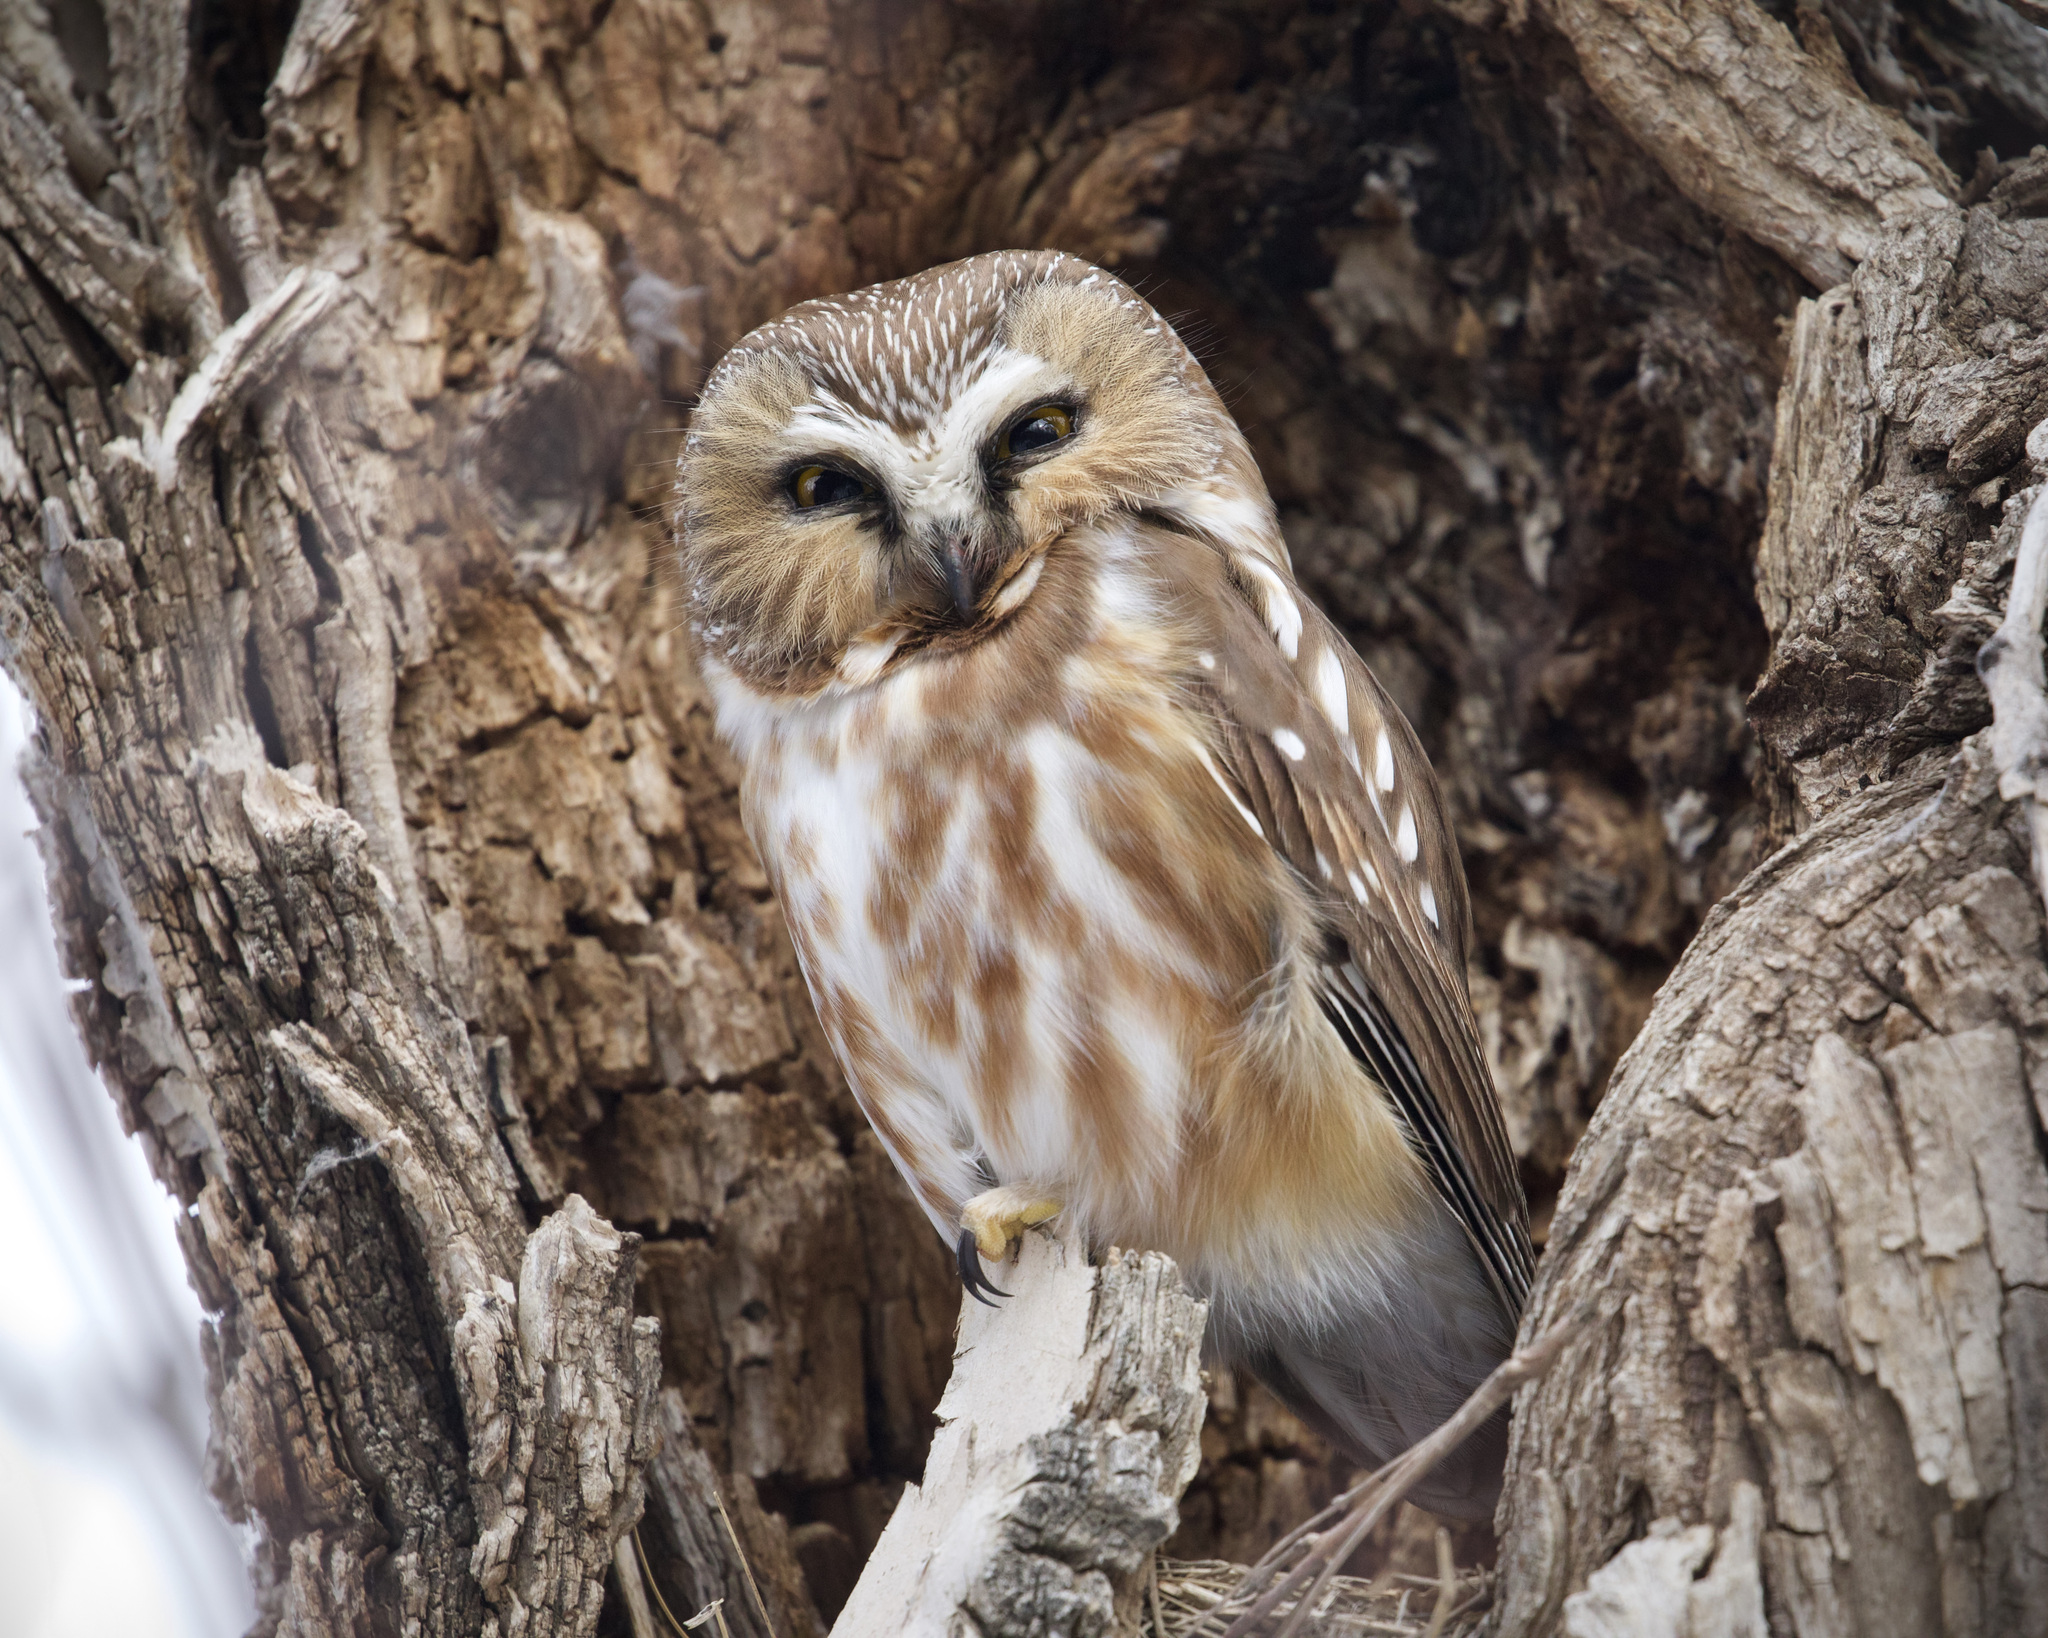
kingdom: Animalia
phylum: Chordata
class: Aves
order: Strigiformes
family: Strigidae
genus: Aegolius
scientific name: Aegolius acadicus
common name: Northern saw-whet owl
